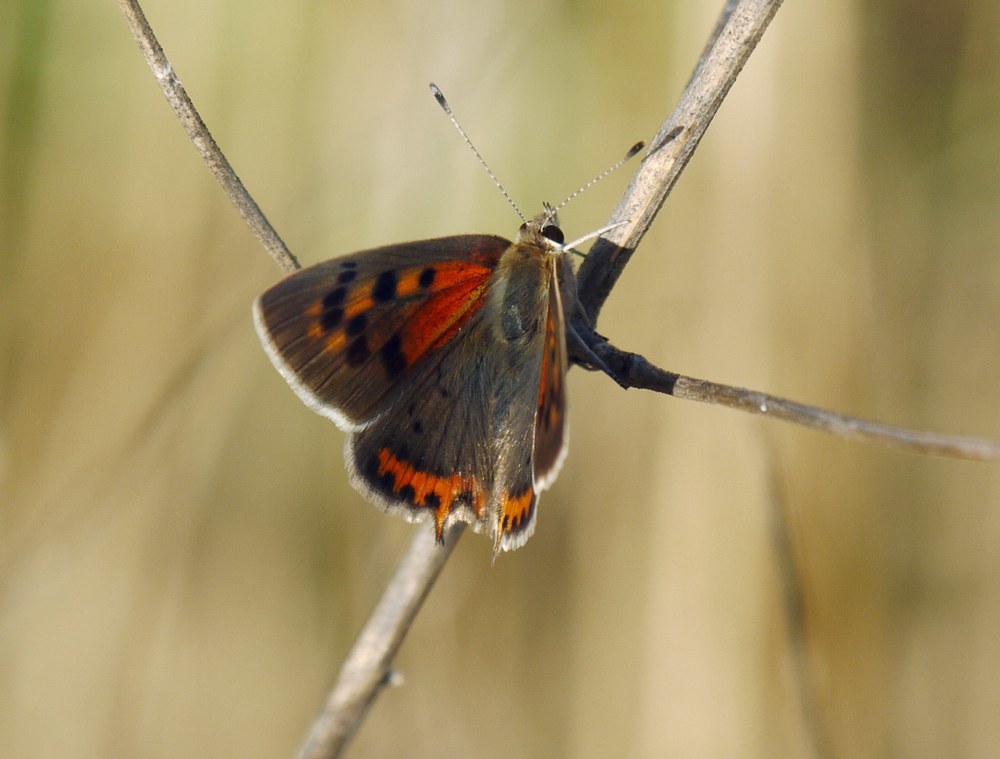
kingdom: Animalia
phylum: Arthropoda
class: Insecta
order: Lepidoptera
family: Lycaenidae
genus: Lycaena
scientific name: Lycaena phlaeas
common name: Small copper
